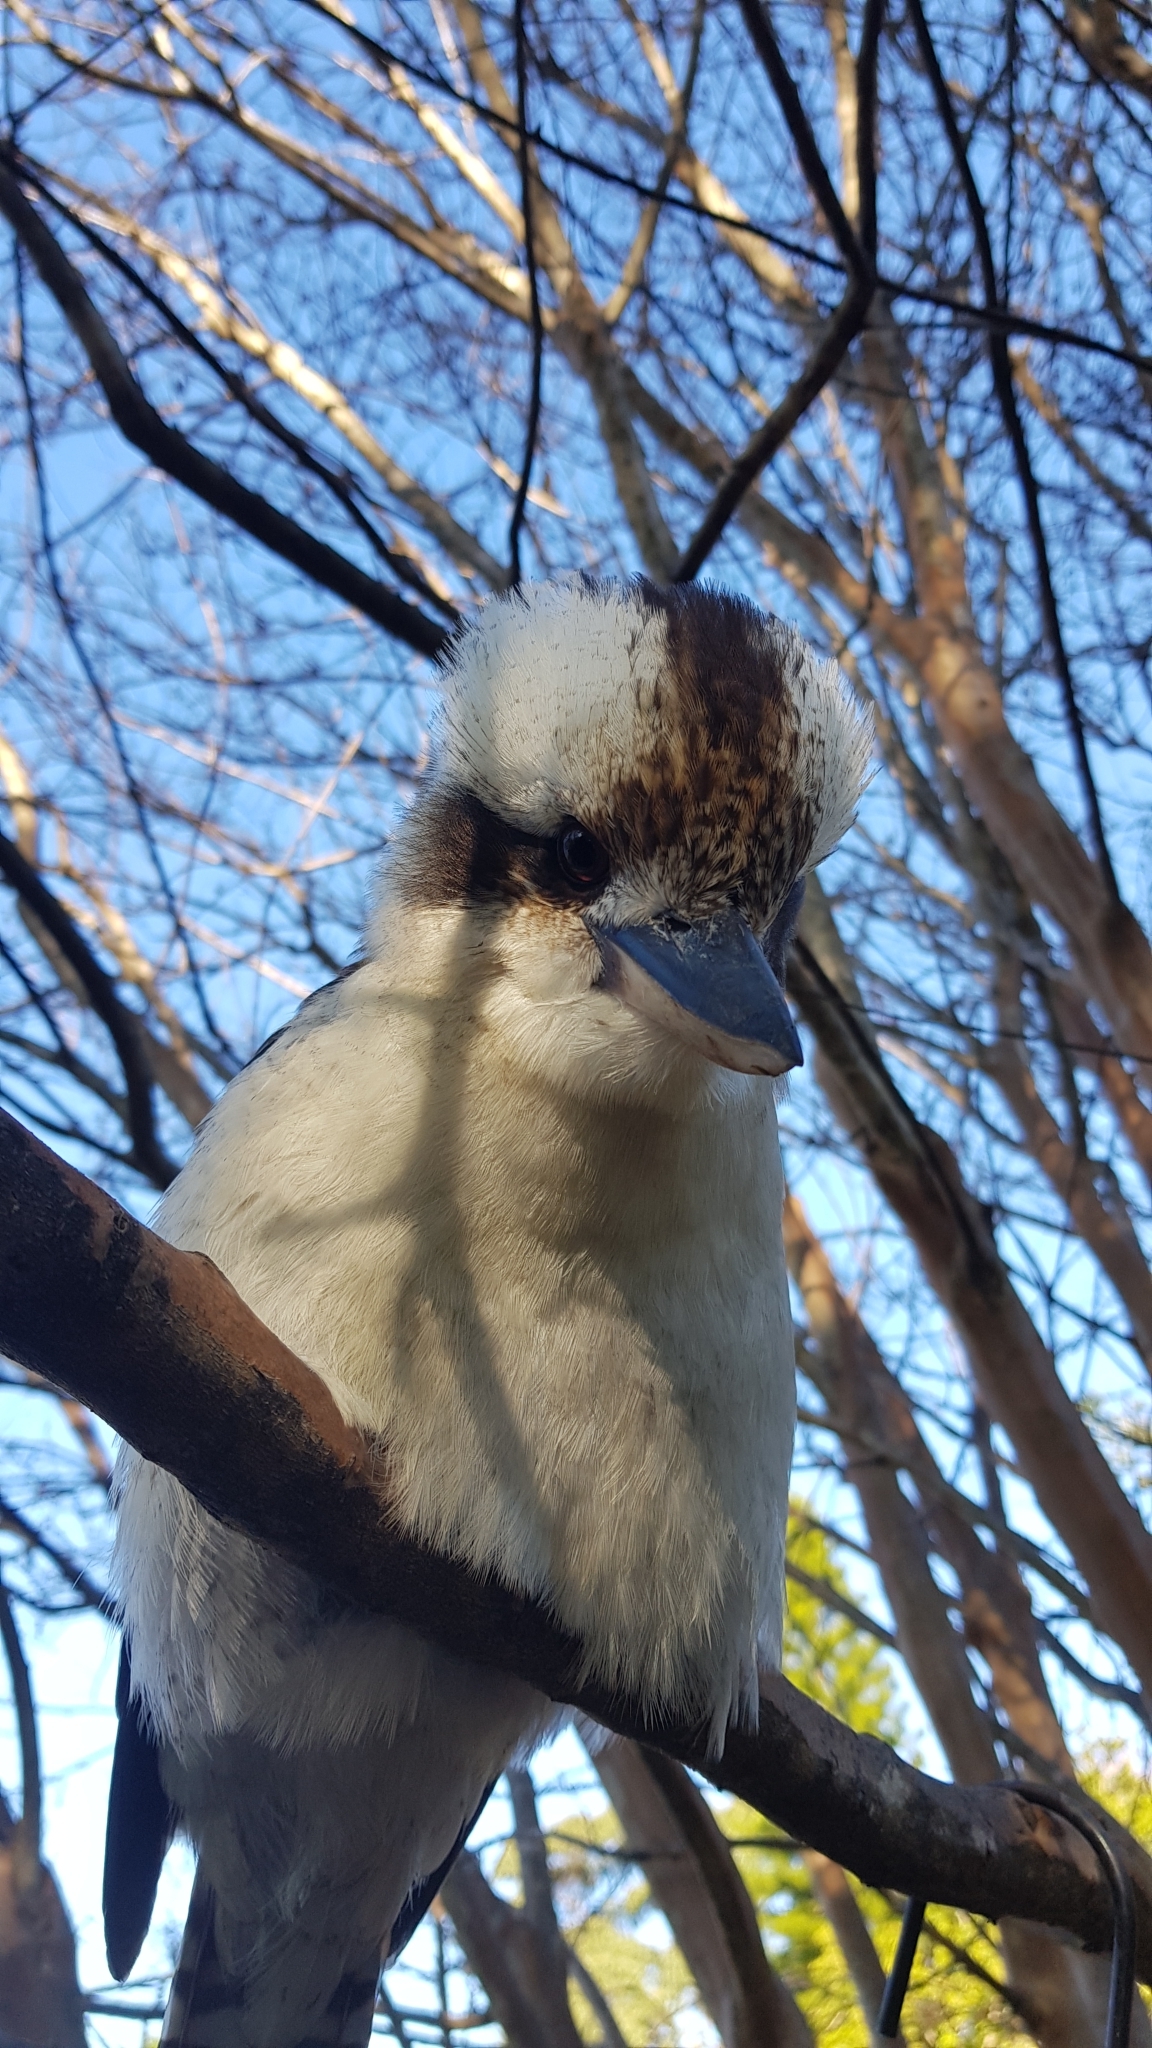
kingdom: Animalia
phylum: Chordata
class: Aves
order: Coraciiformes
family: Alcedinidae
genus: Dacelo
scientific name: Dacelo novaeguineae
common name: Laughing kookaburra
